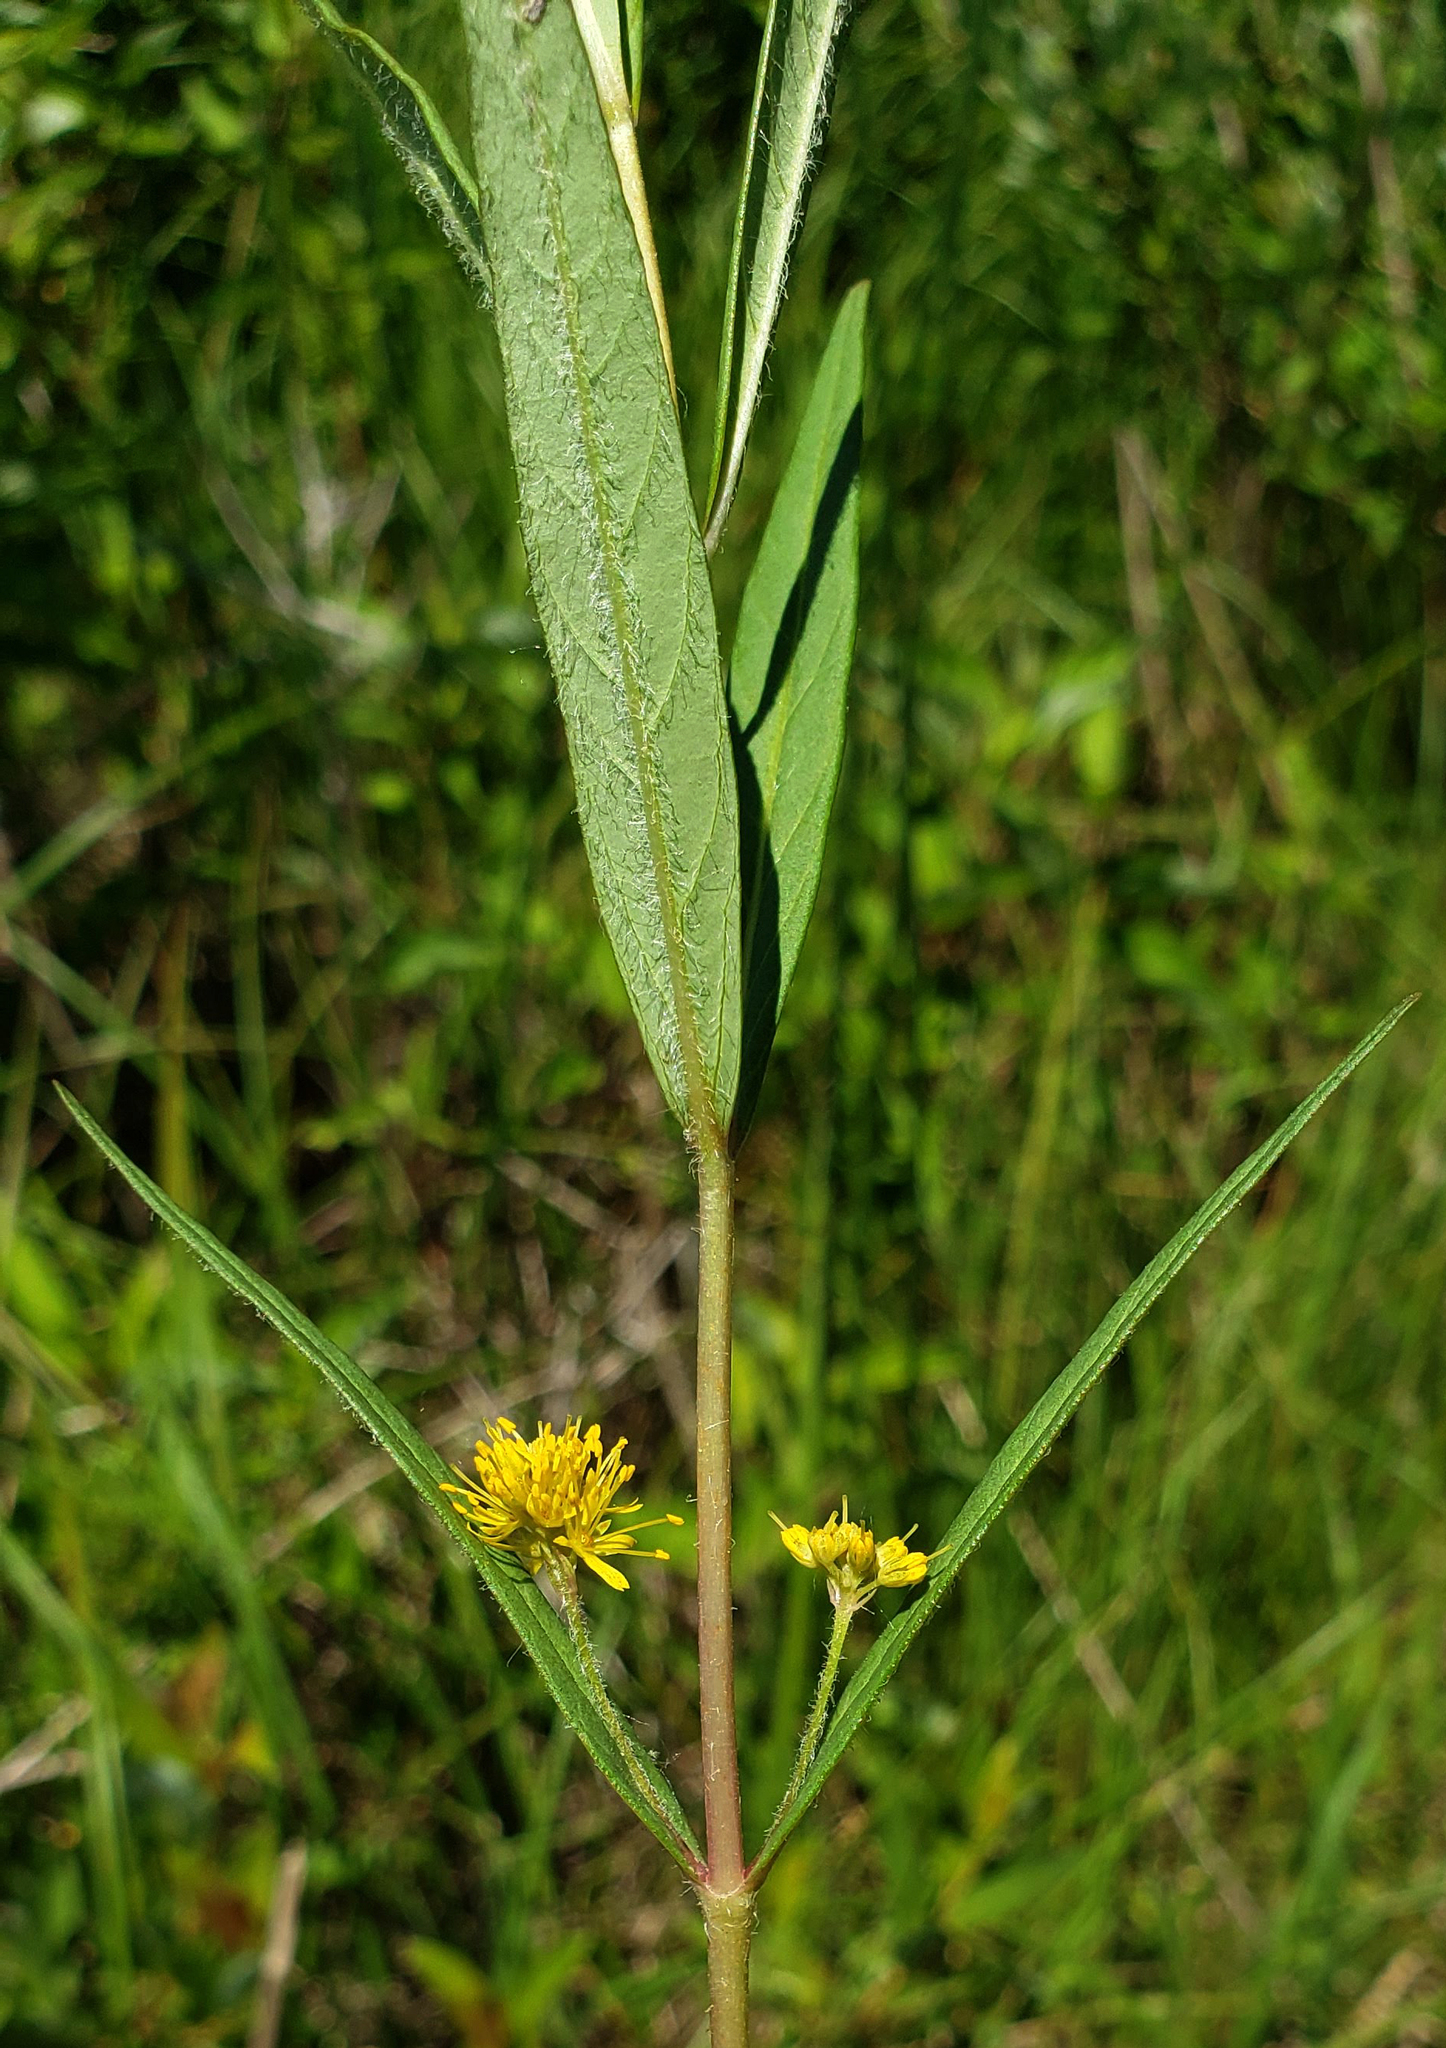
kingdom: Plantae
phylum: Tracheophyta
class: Magnoliopsida
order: Ericales
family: Primulaceae
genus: Lysimachia
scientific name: Lysimachia thyrsiflora
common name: Tufted loosestrife
